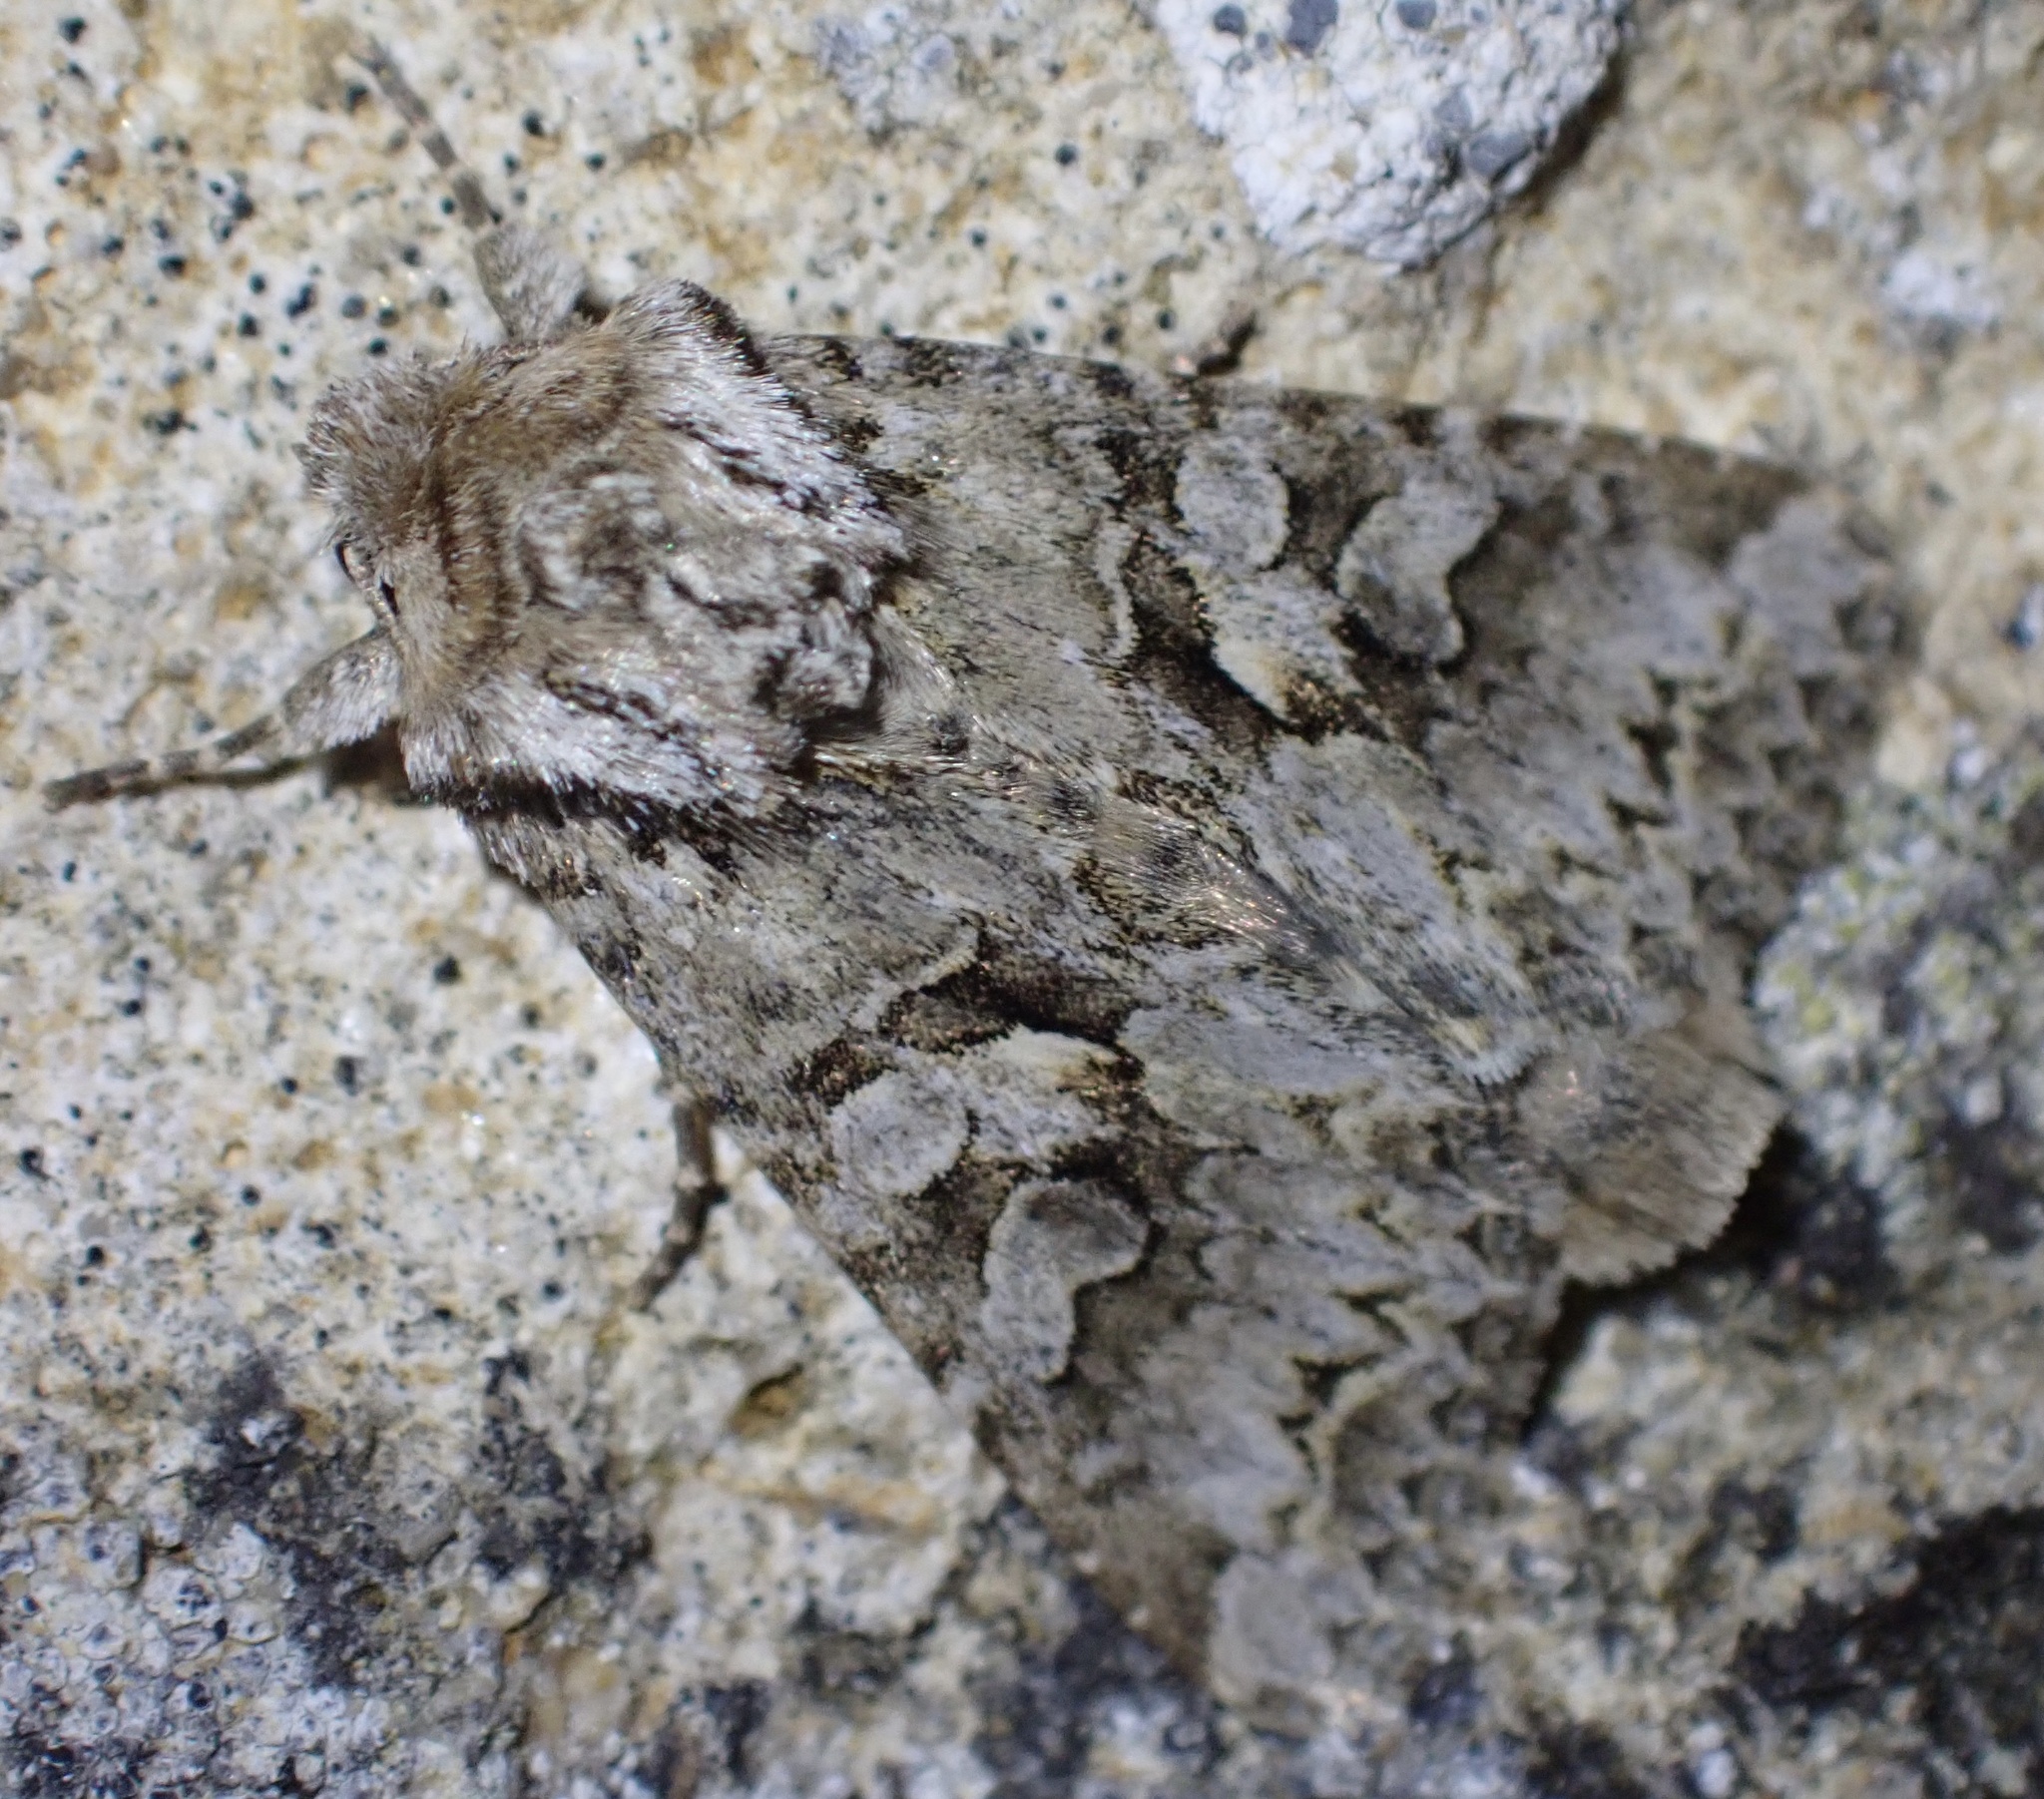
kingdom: Animalia
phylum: Arthropoda
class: Insecta
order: Lepidoptera
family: Noctuidae
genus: Hada
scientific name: Hada plebeja
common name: Shears
